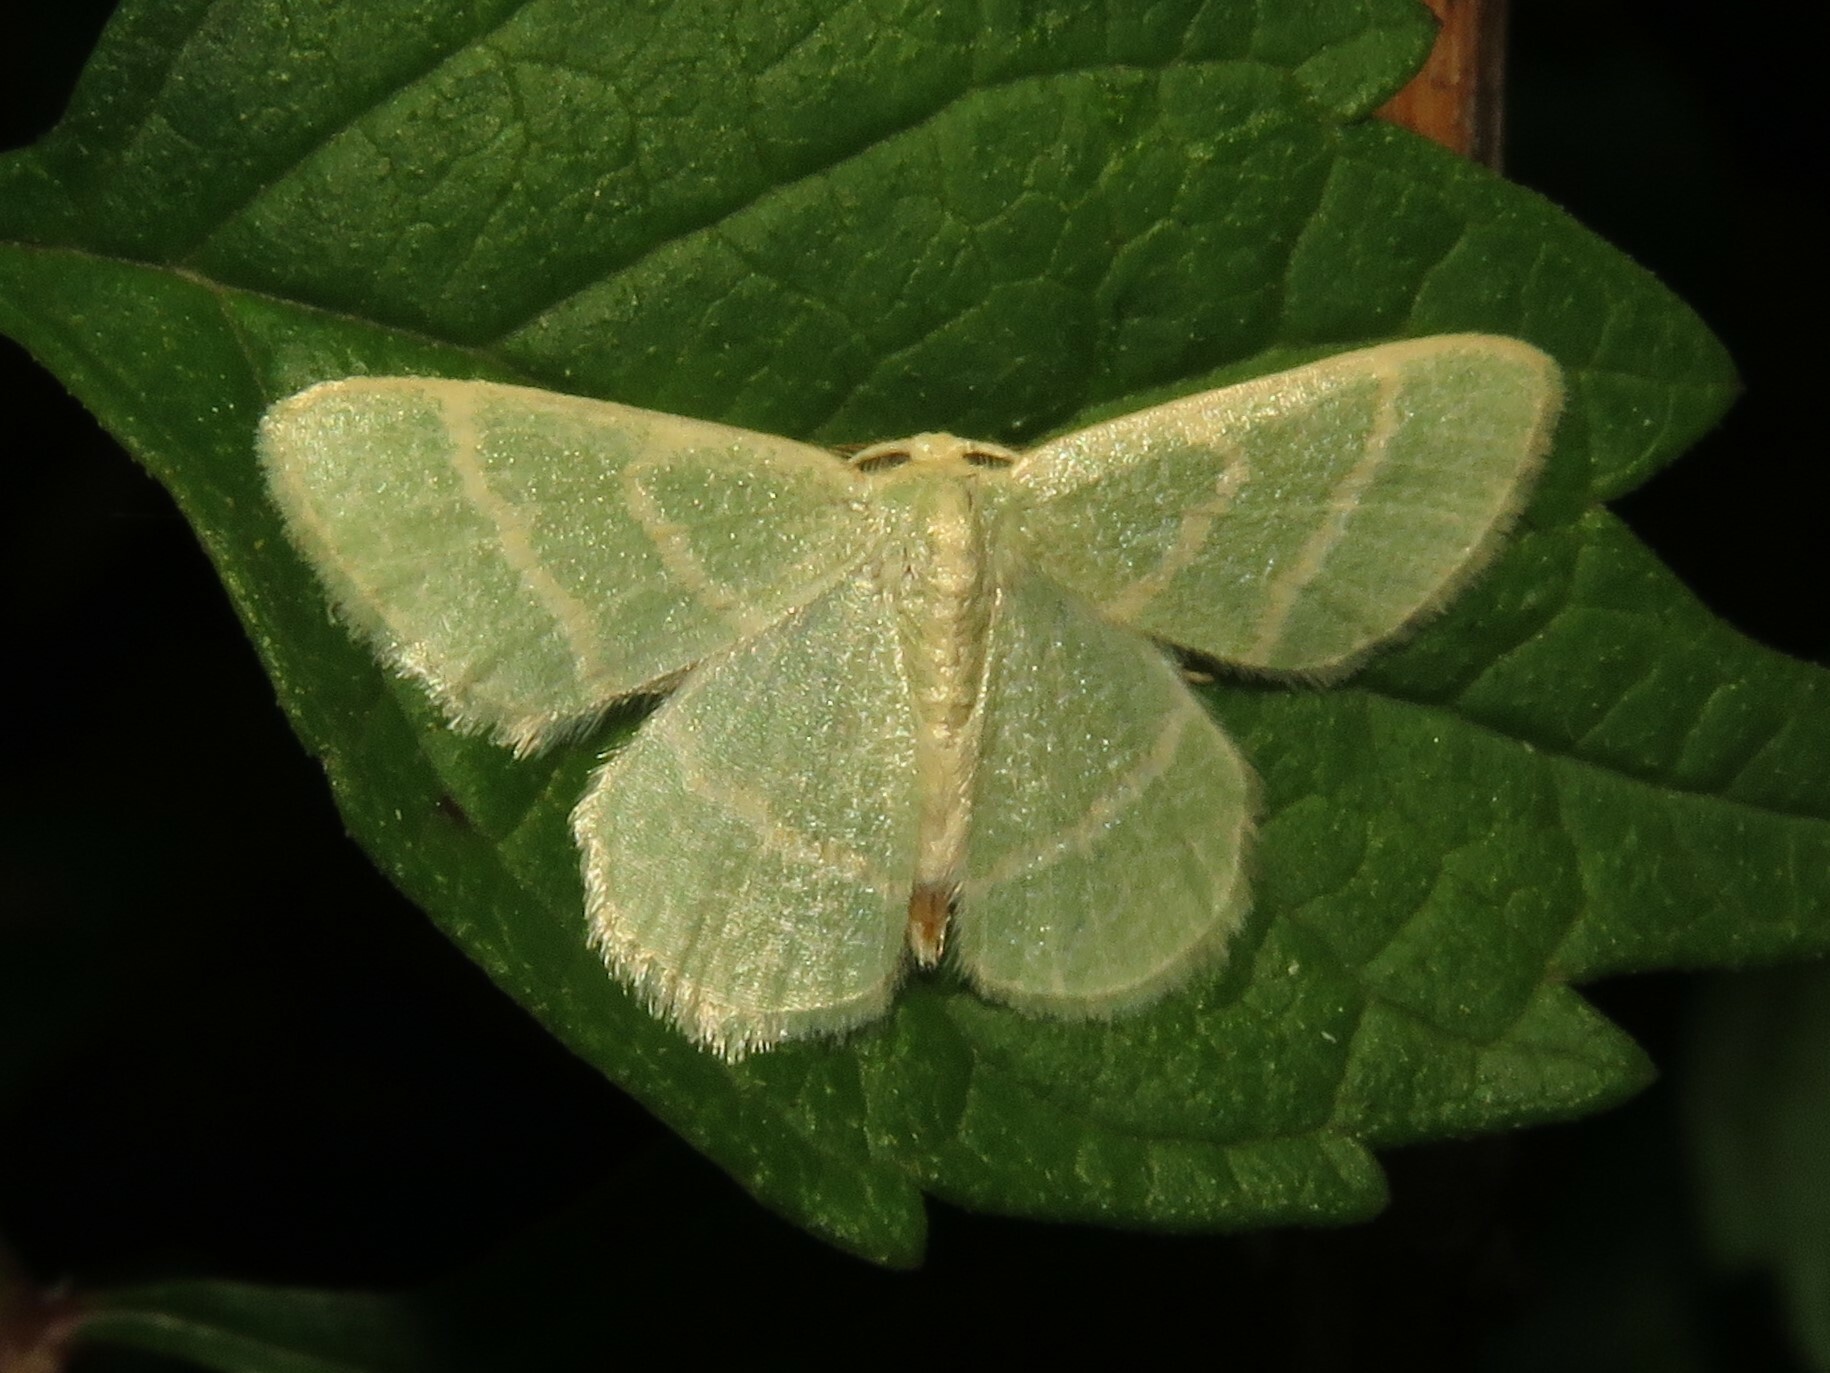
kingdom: Animalia
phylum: Arthropoda
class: Insecta
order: Lepidoptera
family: Geometridae
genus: Chlorochlamys
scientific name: Chlorochlamys chloroleucaria
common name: Blackberry looper
